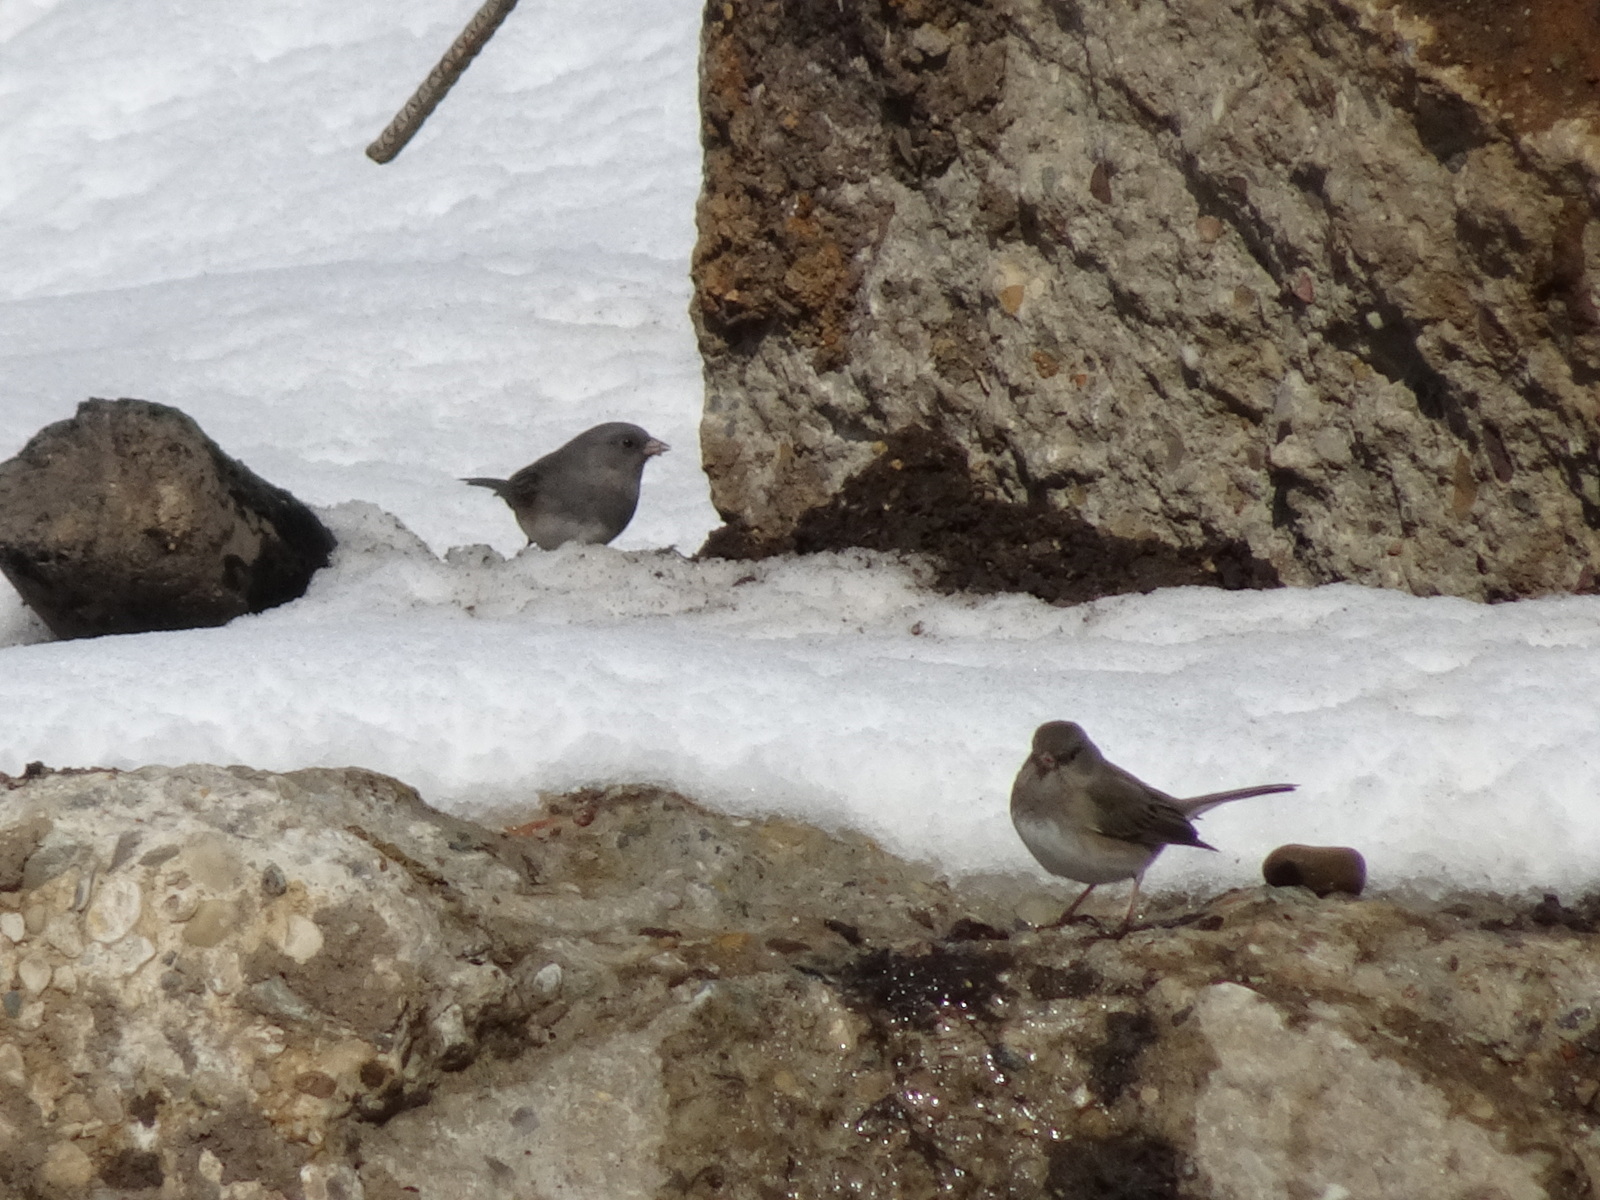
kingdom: Animalia
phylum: Chordata
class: Aves
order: Passeriformes
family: Passerellidae
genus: Junco
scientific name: Junco hyemalis
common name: Dark-eyed junco
